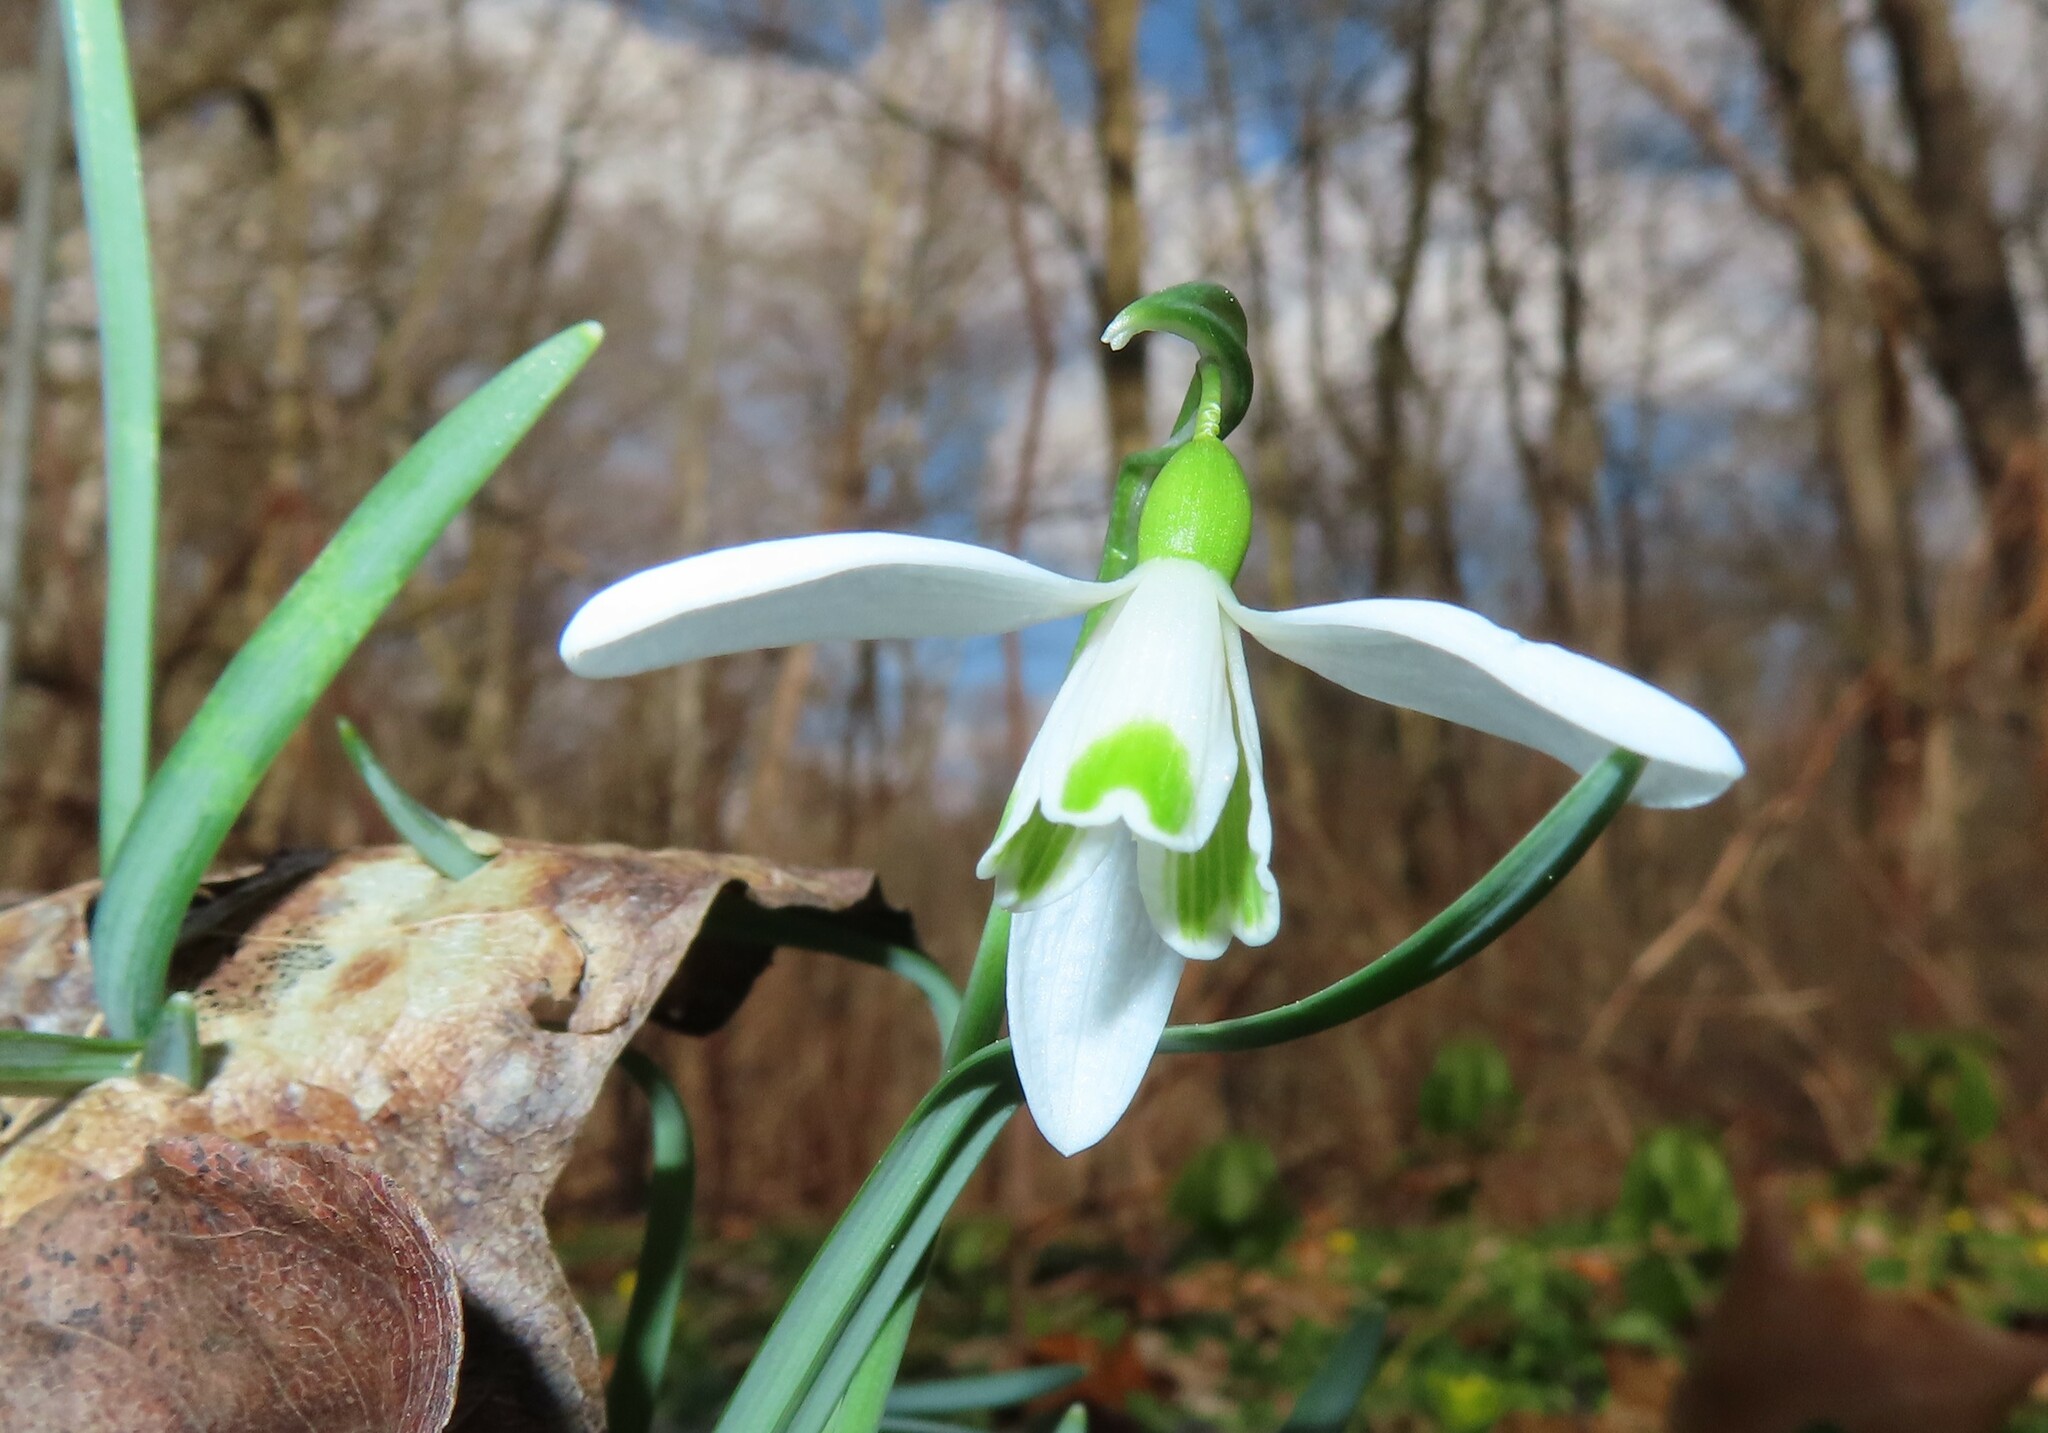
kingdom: Plantae
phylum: Tracheophyta
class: Liliopsida
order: Asparagales
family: Amaryllidaceae
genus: Galanthus
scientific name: Galanthus nivalis
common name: Snowdrop
